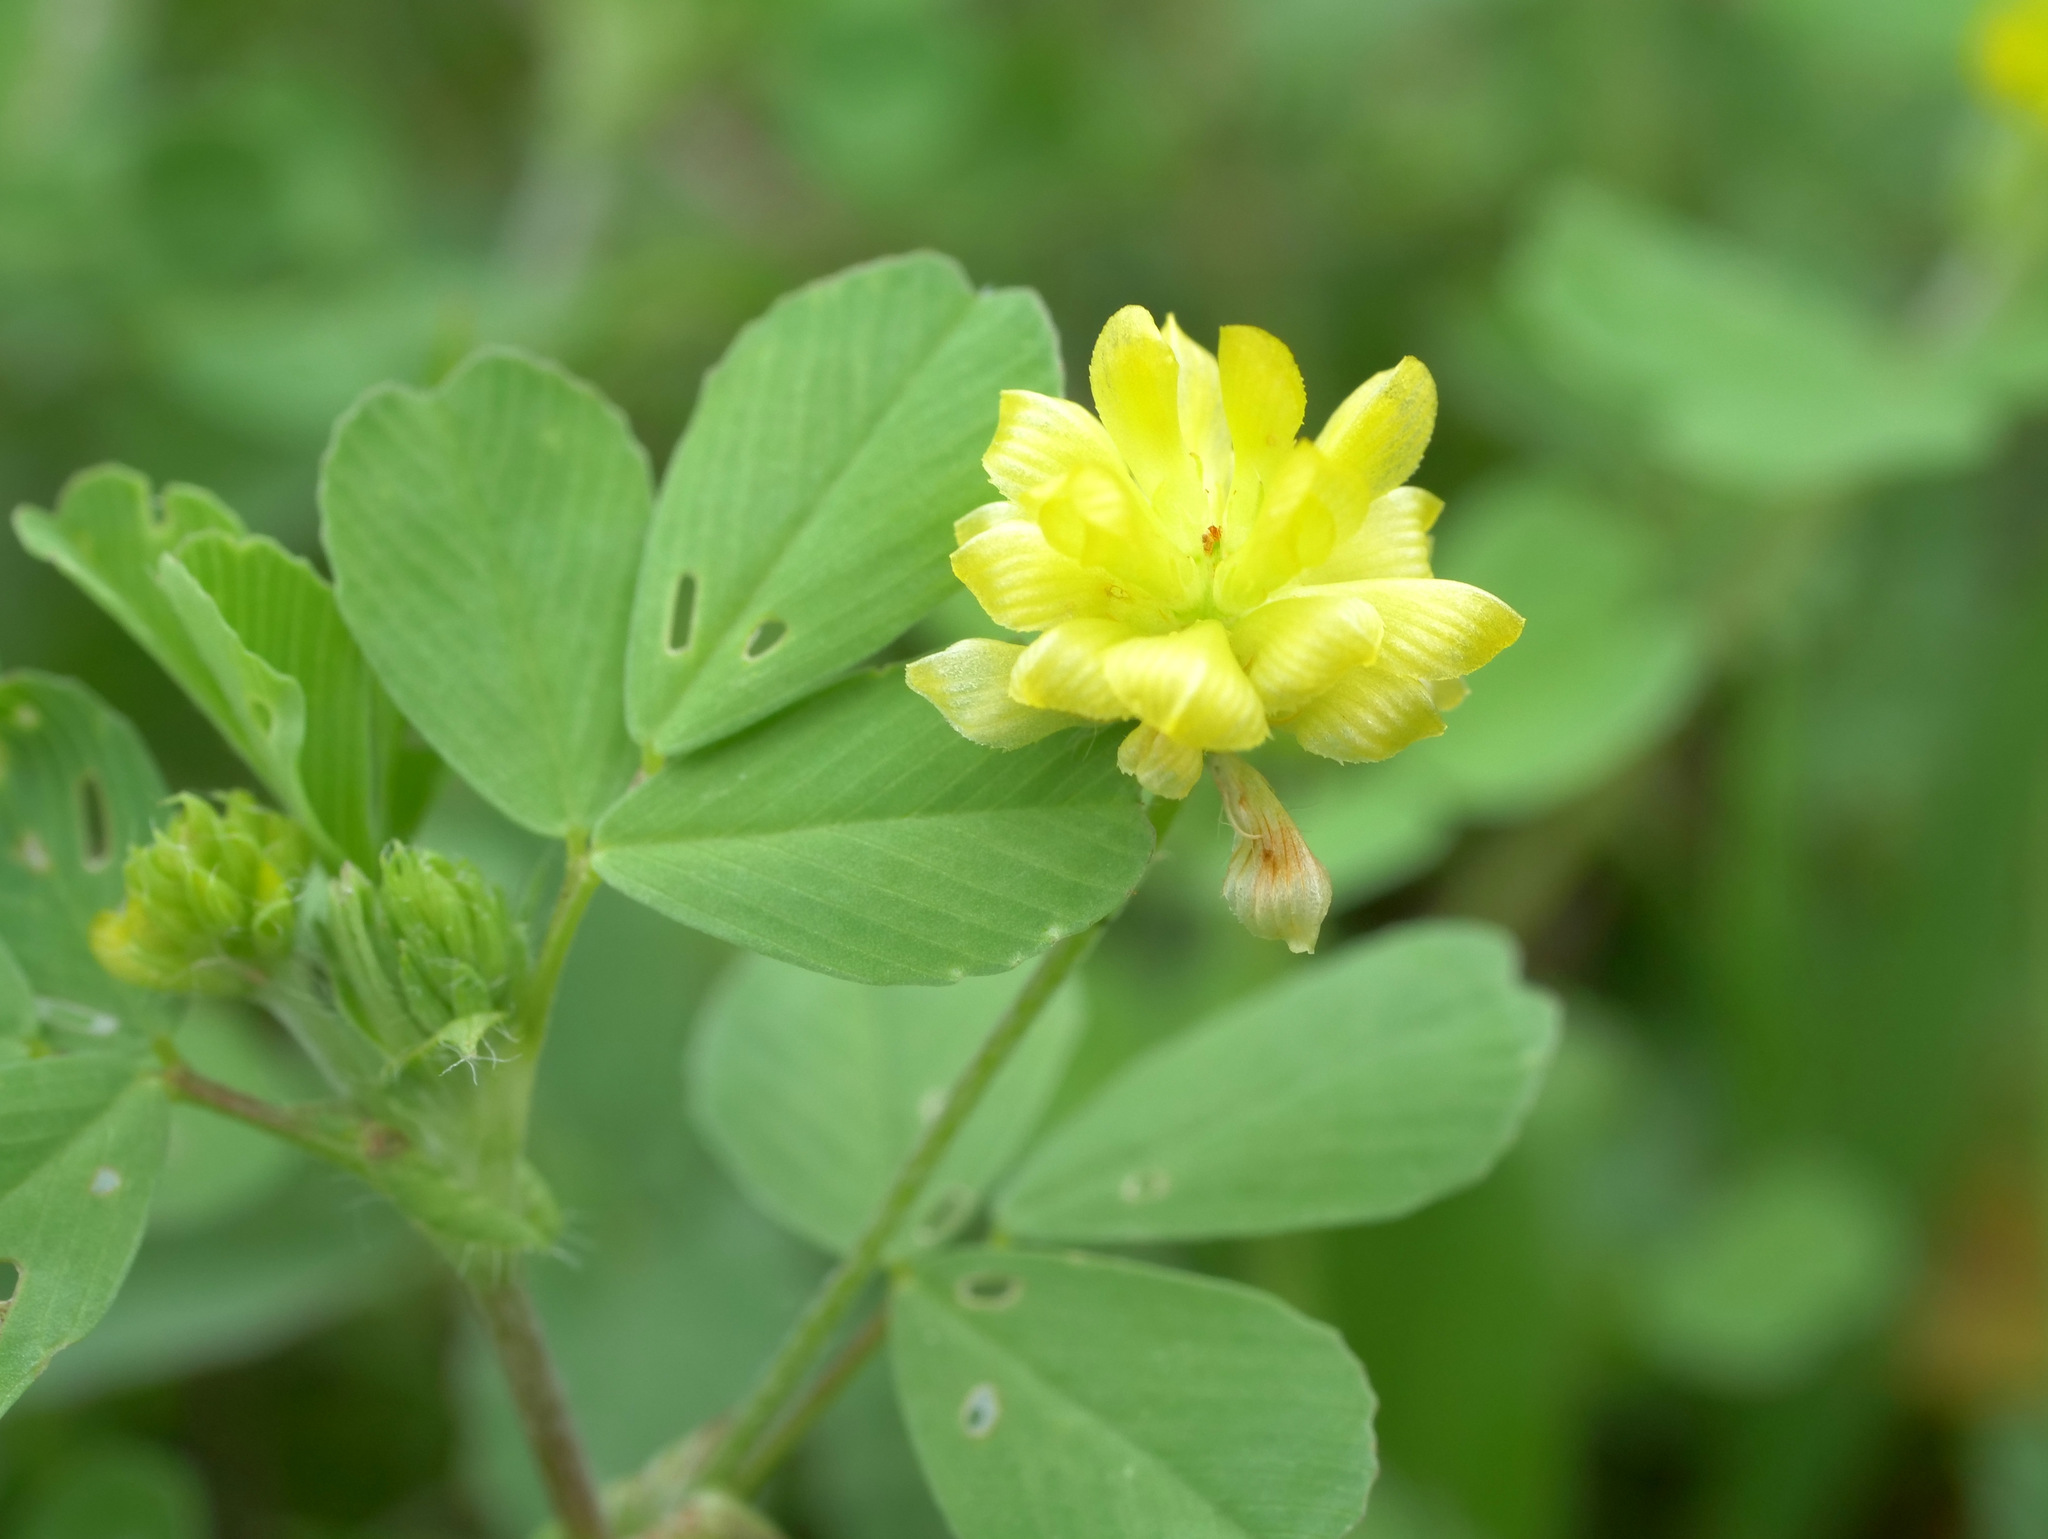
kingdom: Plantae
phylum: Tracheophyta
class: Magnoliopsida
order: Fabales
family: Fabaceae
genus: Trifolium
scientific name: Trifolium campestre
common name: Field clover
